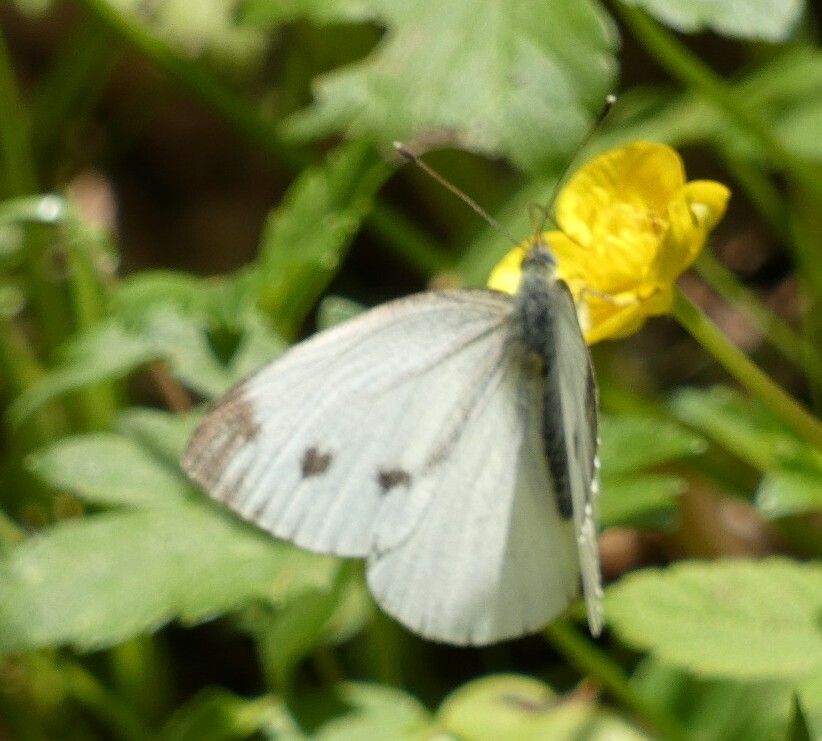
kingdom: Animalia
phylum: Arthropoda
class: Insecta
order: Lepidoptera
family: Pieridae
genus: Pieris
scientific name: Pieris napi
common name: Green-veined white
